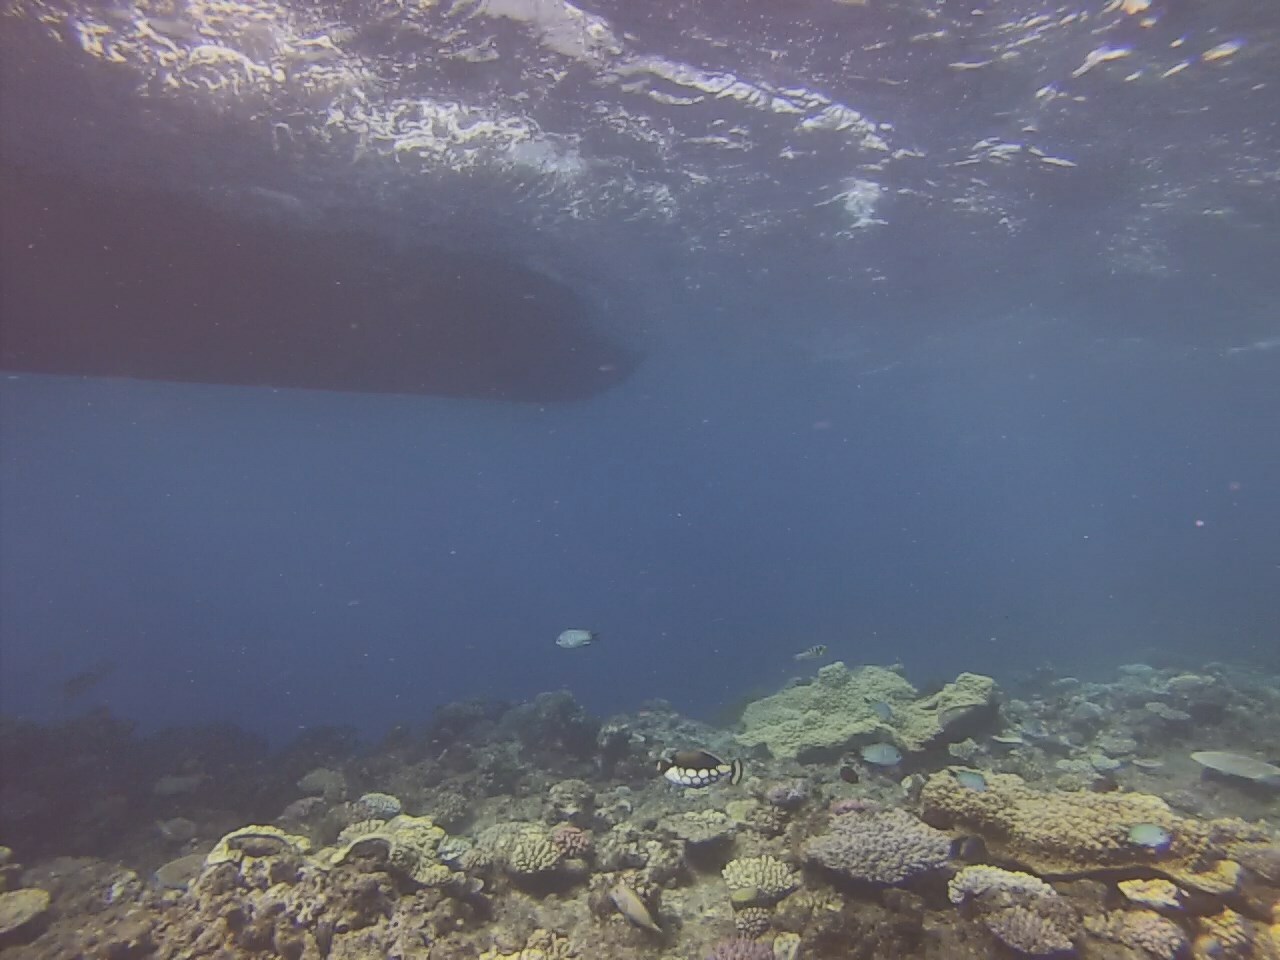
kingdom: Animalia
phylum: Chordata
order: Tetraodontiformes
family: Balistidae
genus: Balistoides
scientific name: Balistoides conspicillum
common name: Clown triggerfish
